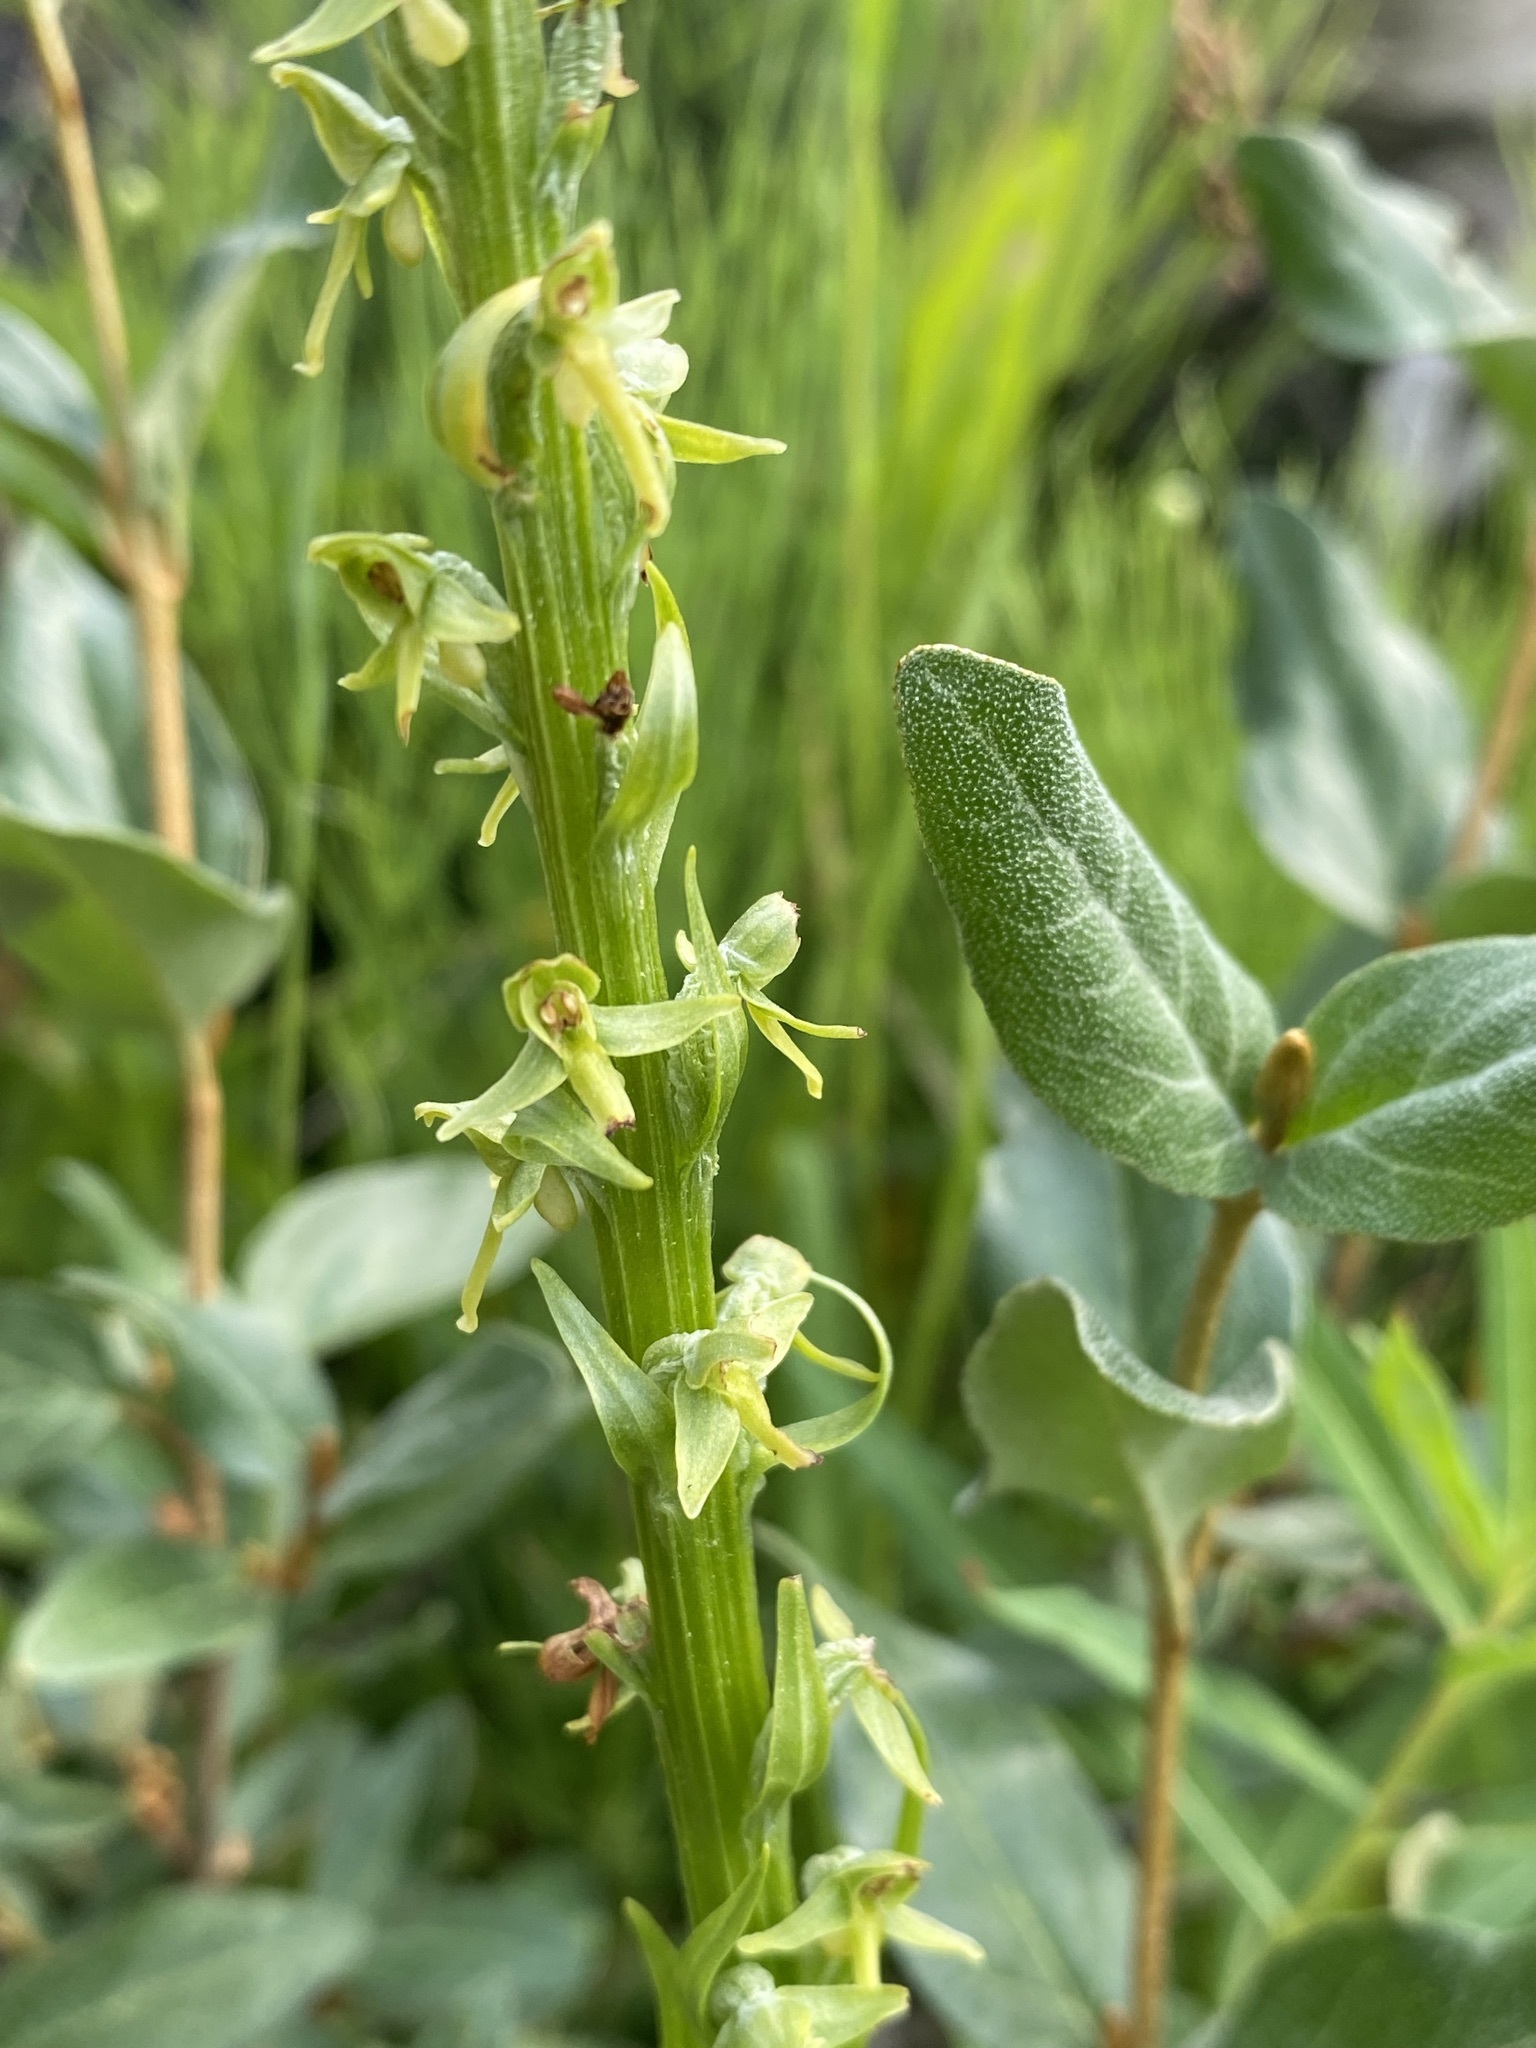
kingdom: Plantae
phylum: Tracheophyta
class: Liliopsida
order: Asparagales
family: Orchidaceae
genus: Platanthera
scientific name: Platanthera stricta
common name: Slender bog orchid
